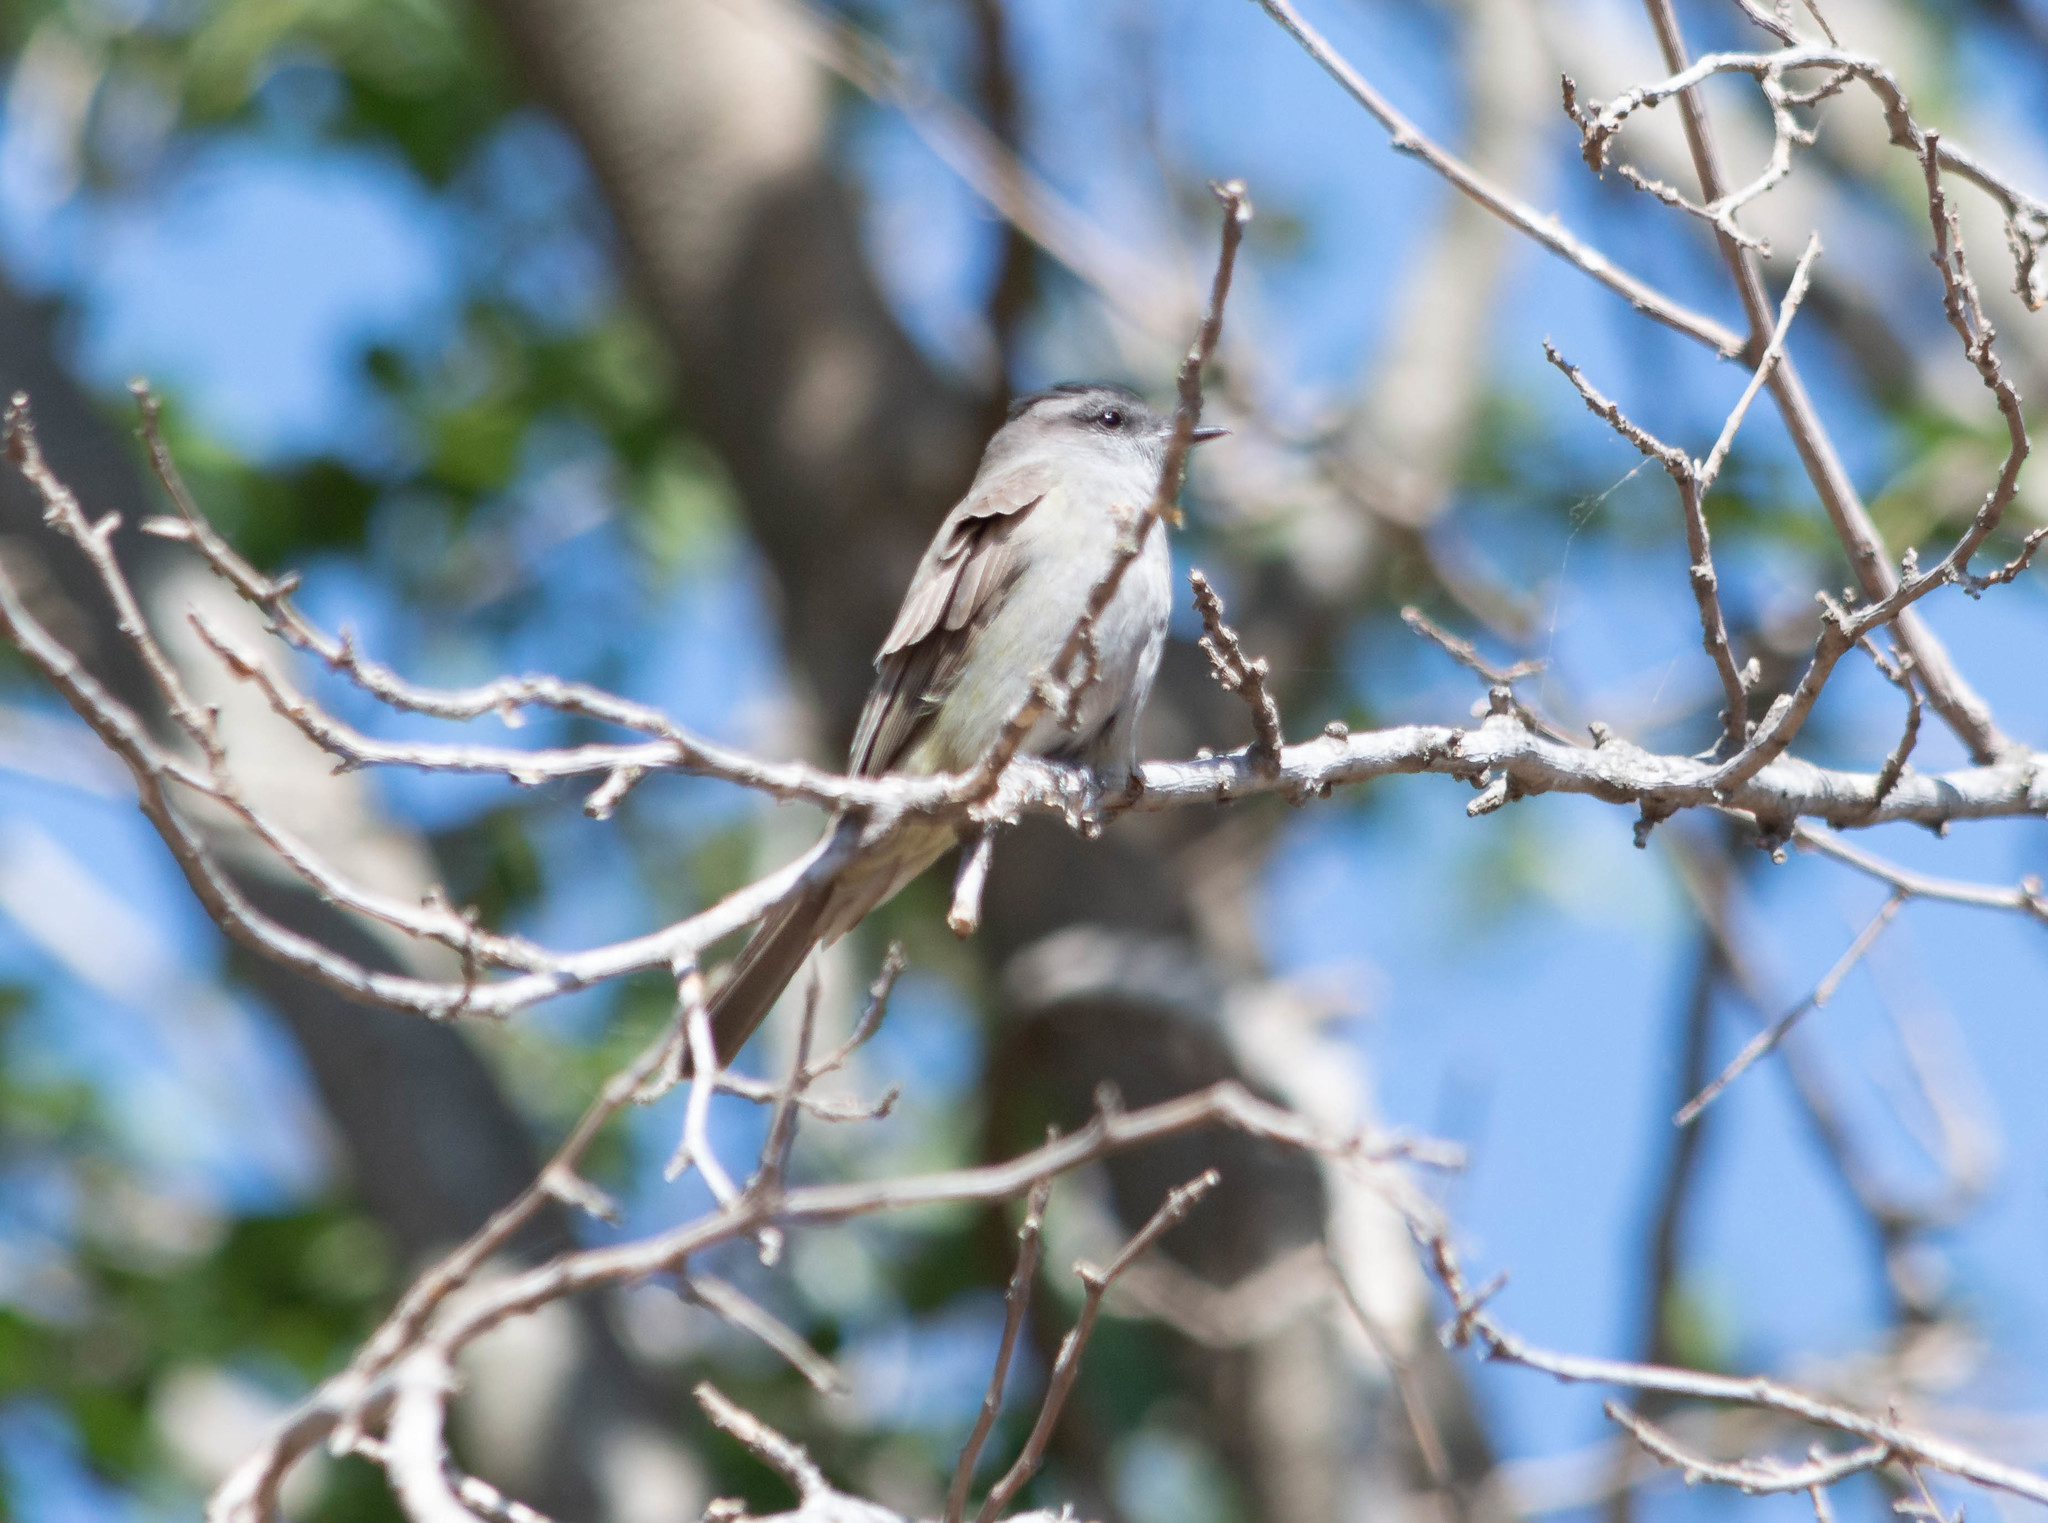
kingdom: Animalia
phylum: Chordata
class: Aves
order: Passeriformes
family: Tyrannidae
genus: Empidonomus
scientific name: Empidonomus aurantioatrocristatus
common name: Crowned slaty flycatcher
